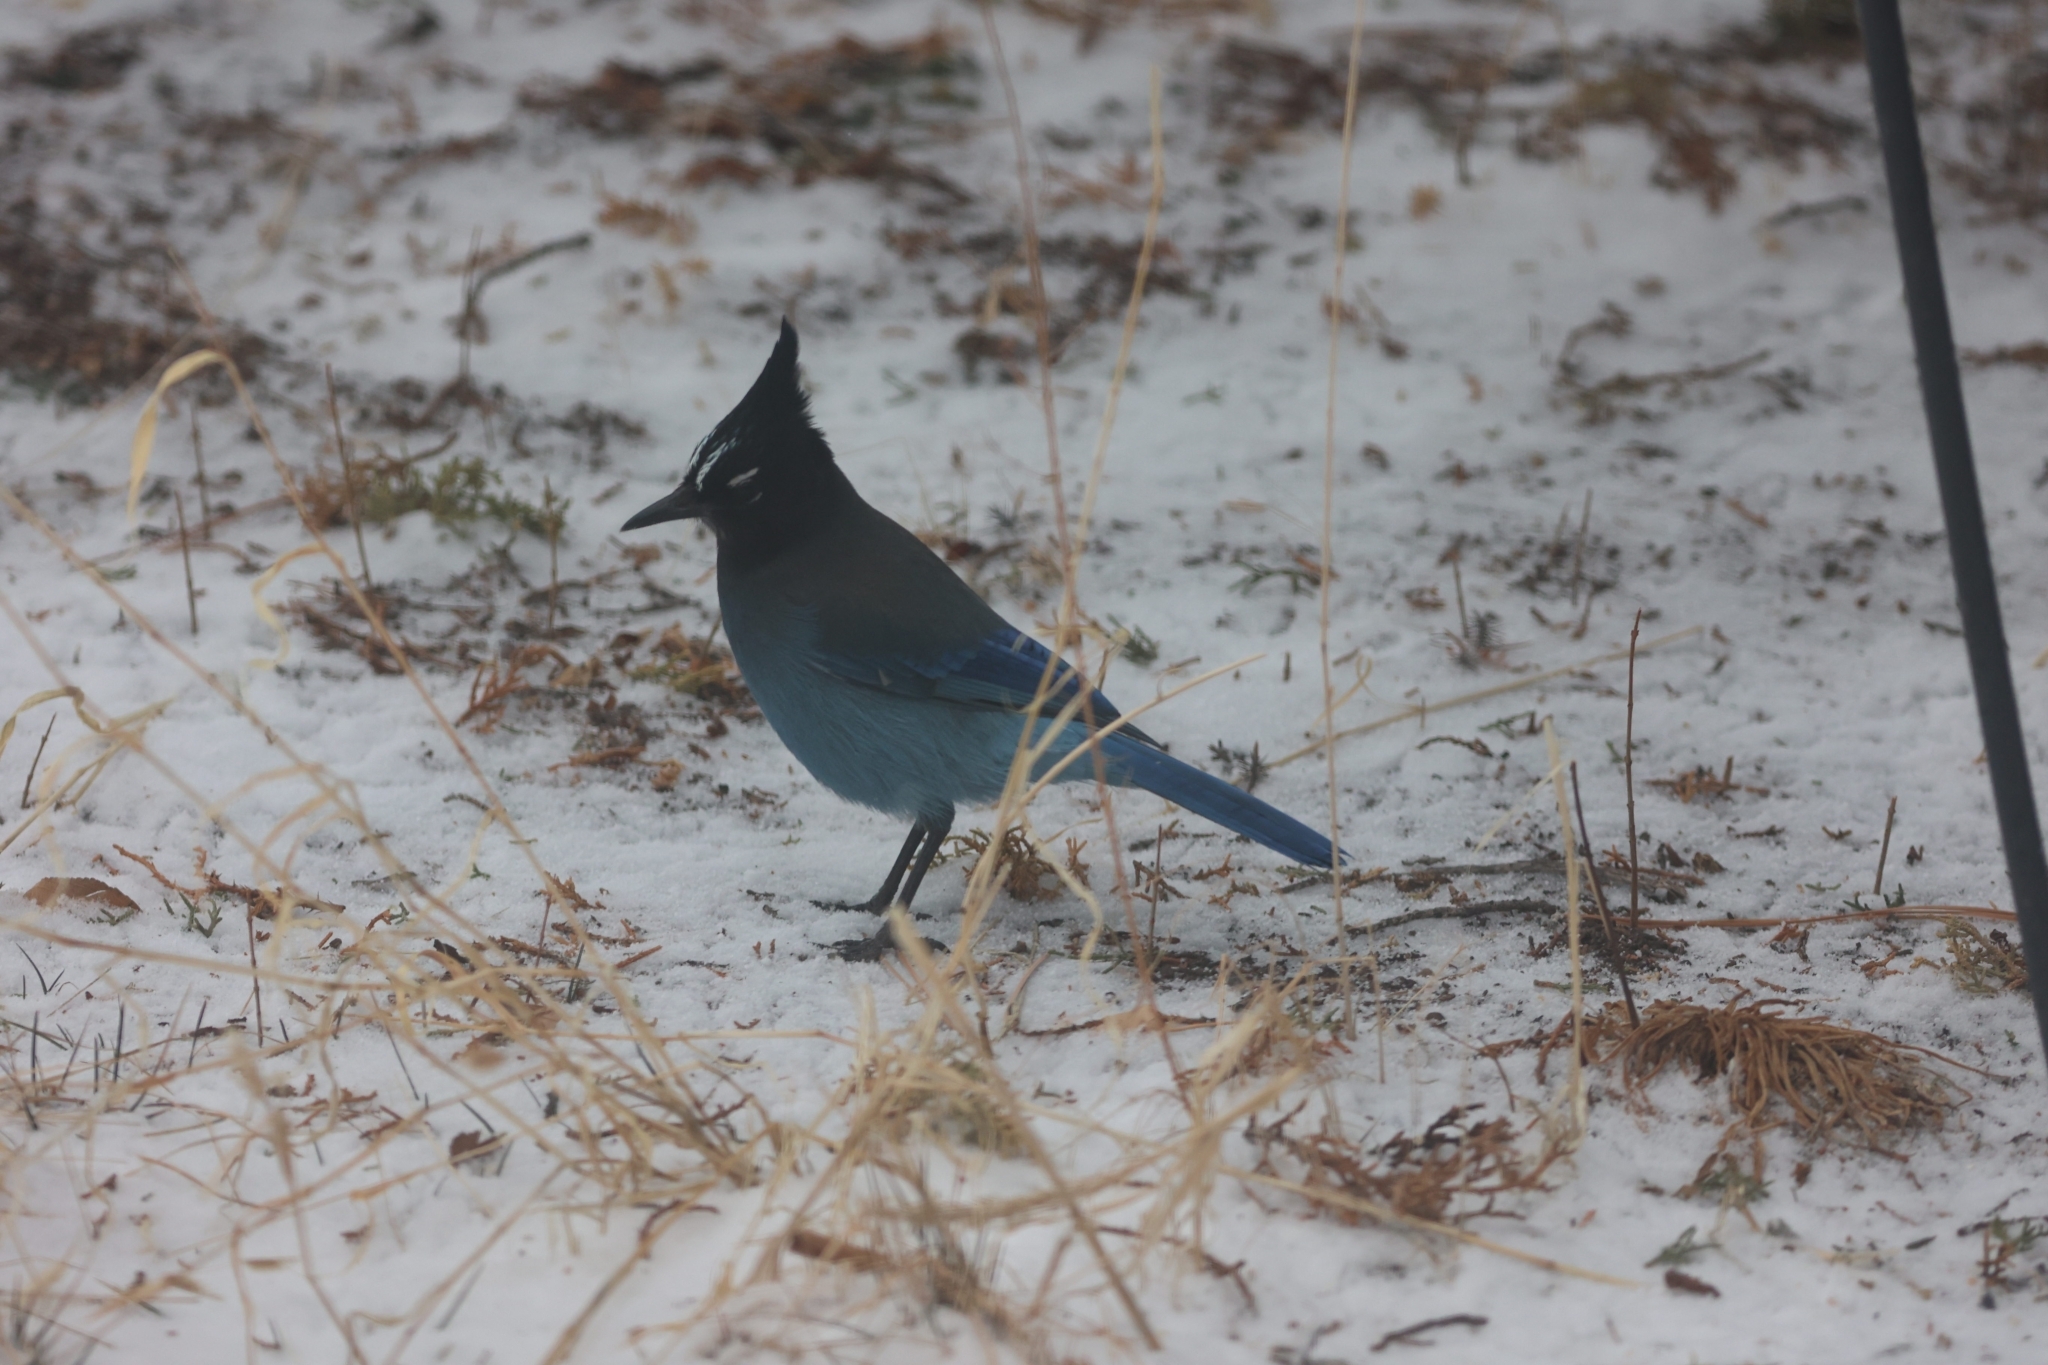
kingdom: Animalia
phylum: Chordata
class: Aves
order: Passeriformes
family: Corvidae
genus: Cyanocitta
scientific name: Cyanocitta stelleri
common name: Steller's jay
